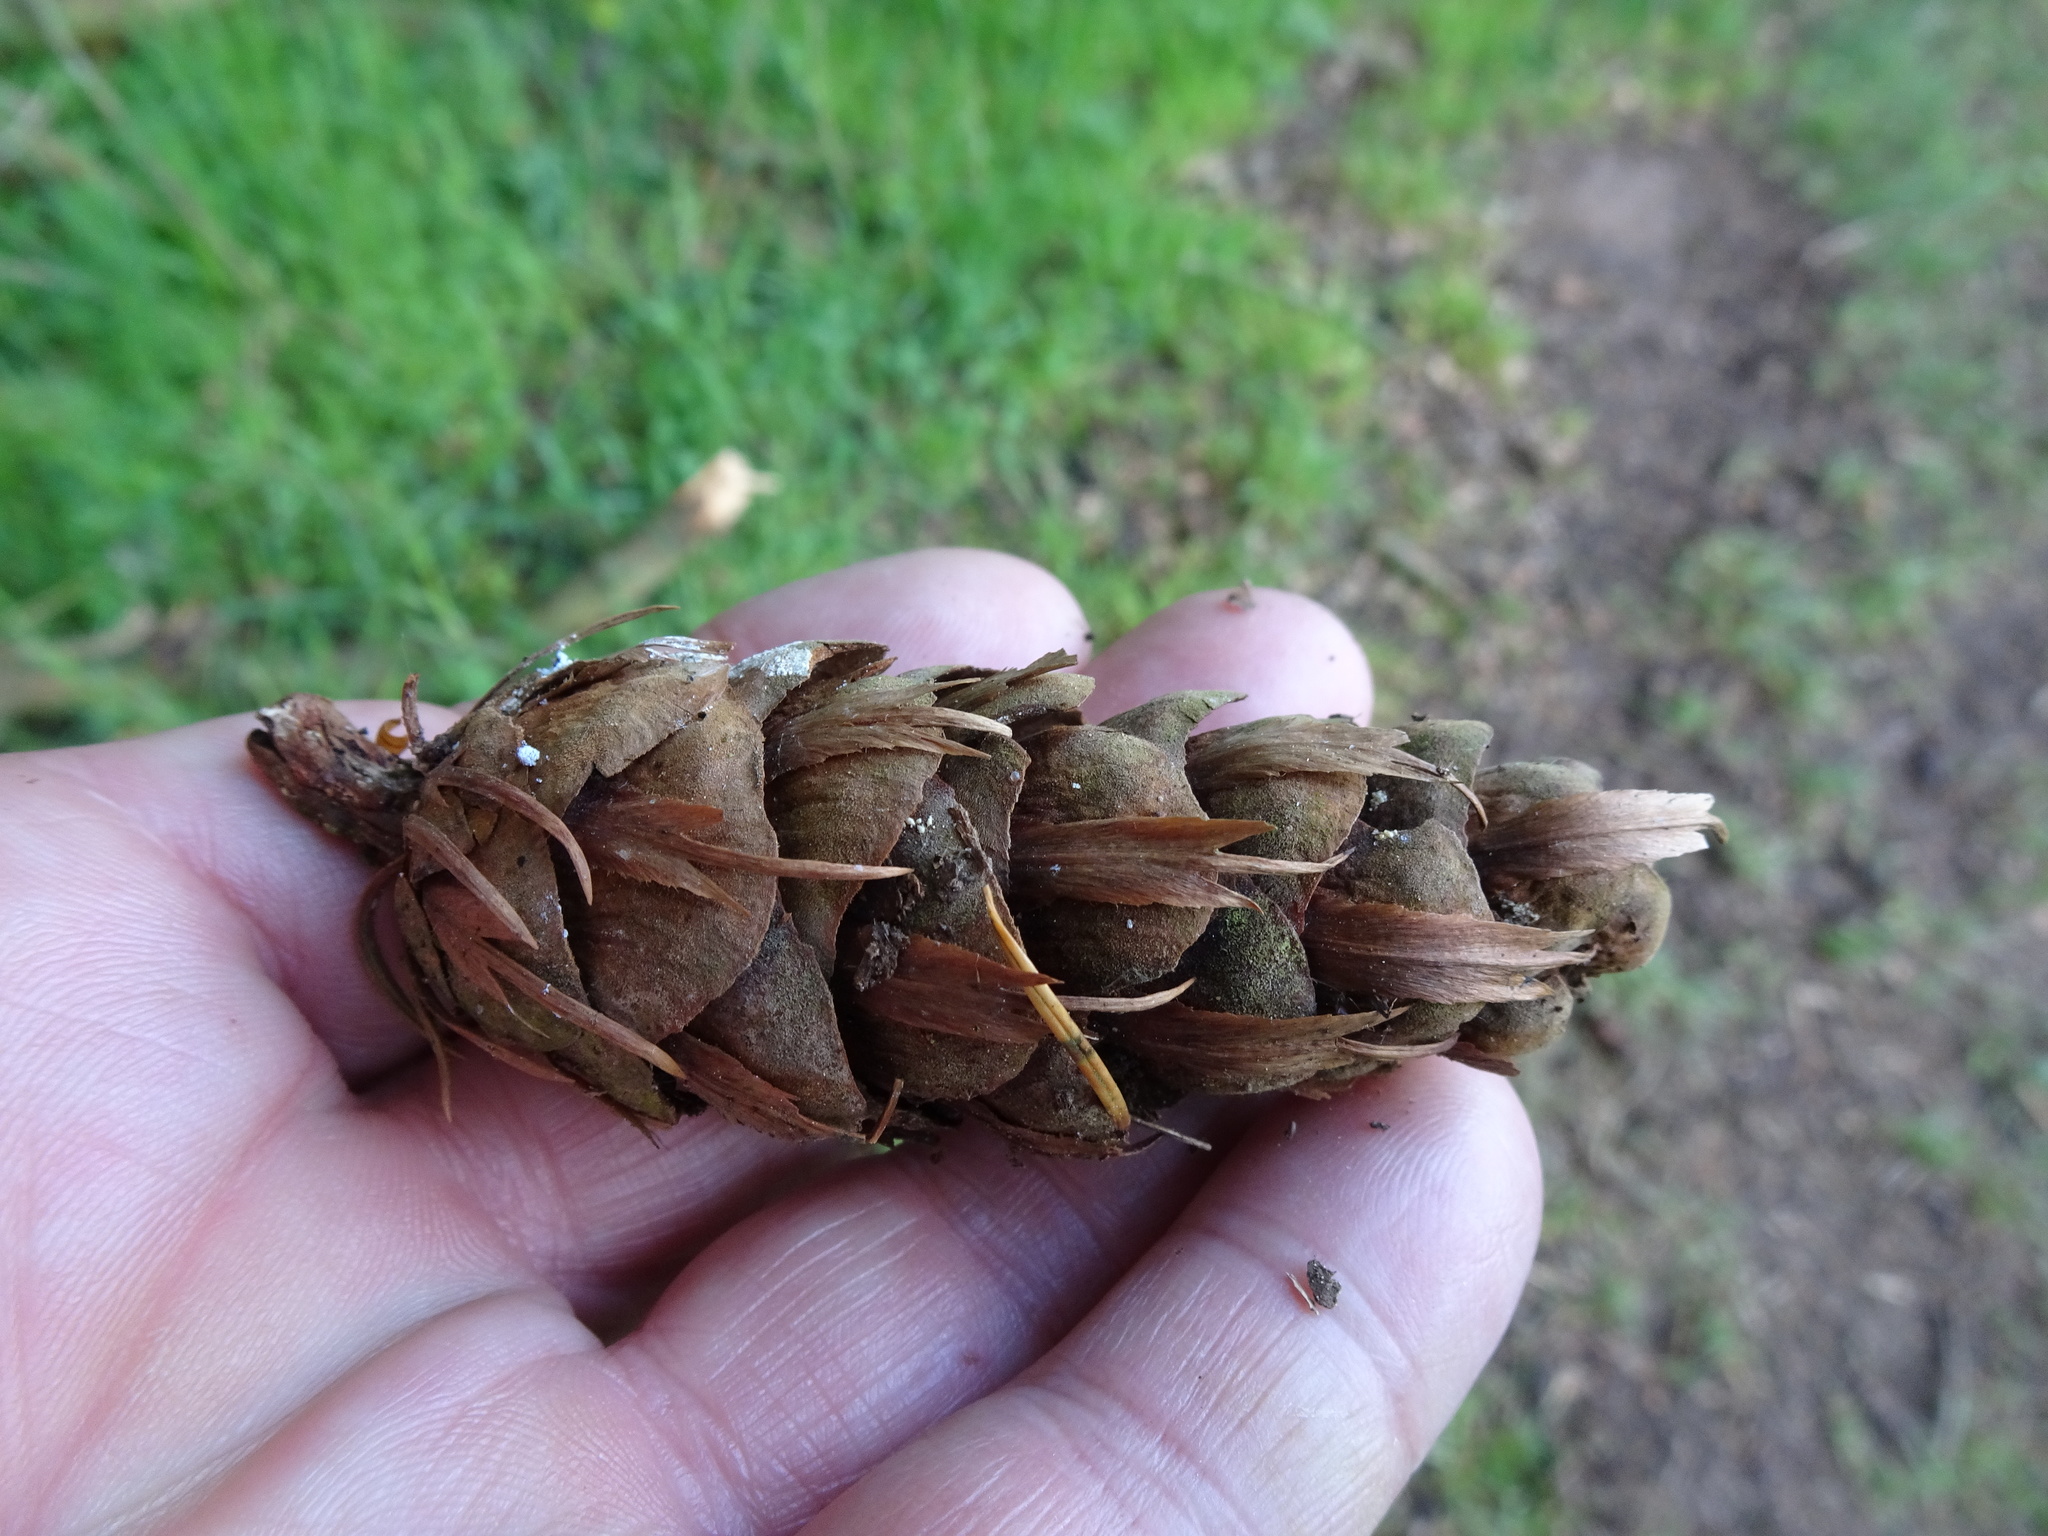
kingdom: Plantae
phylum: Tracheophyta
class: Pinopsida
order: Pinales
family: Pinaceae
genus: Pseudotsuga
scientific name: Pseudotsuga menziesii
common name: Douglas fir
